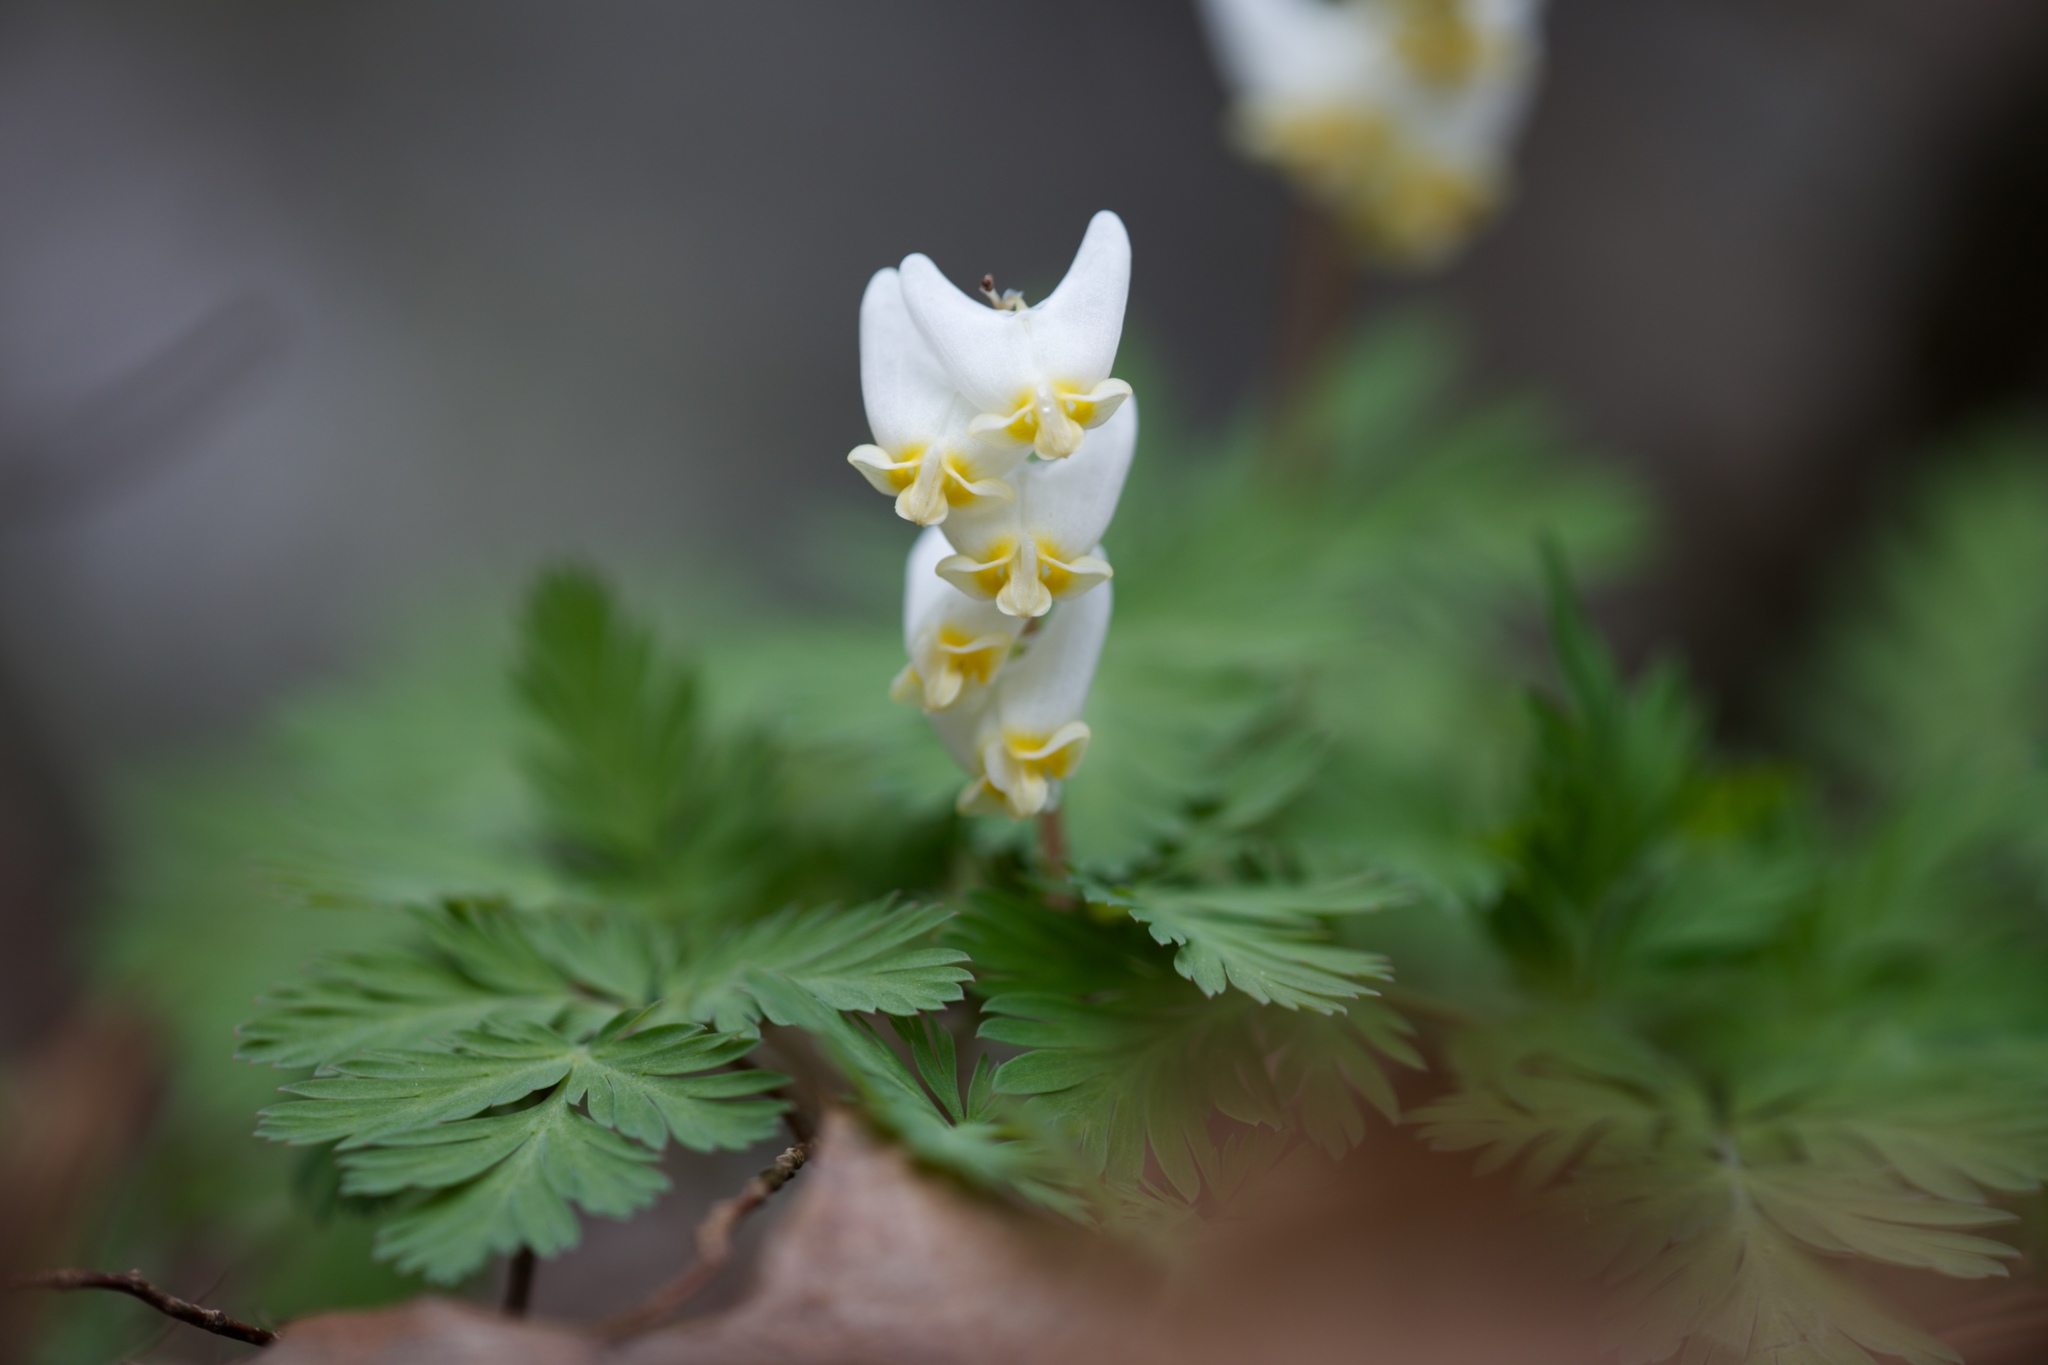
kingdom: Plantae
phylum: Tracheophyta
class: Magnoliopsida
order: Ranunculales
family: Papaveraceae
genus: Dicentra
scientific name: Dicentra cucullaria
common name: Dutchman's breeches
